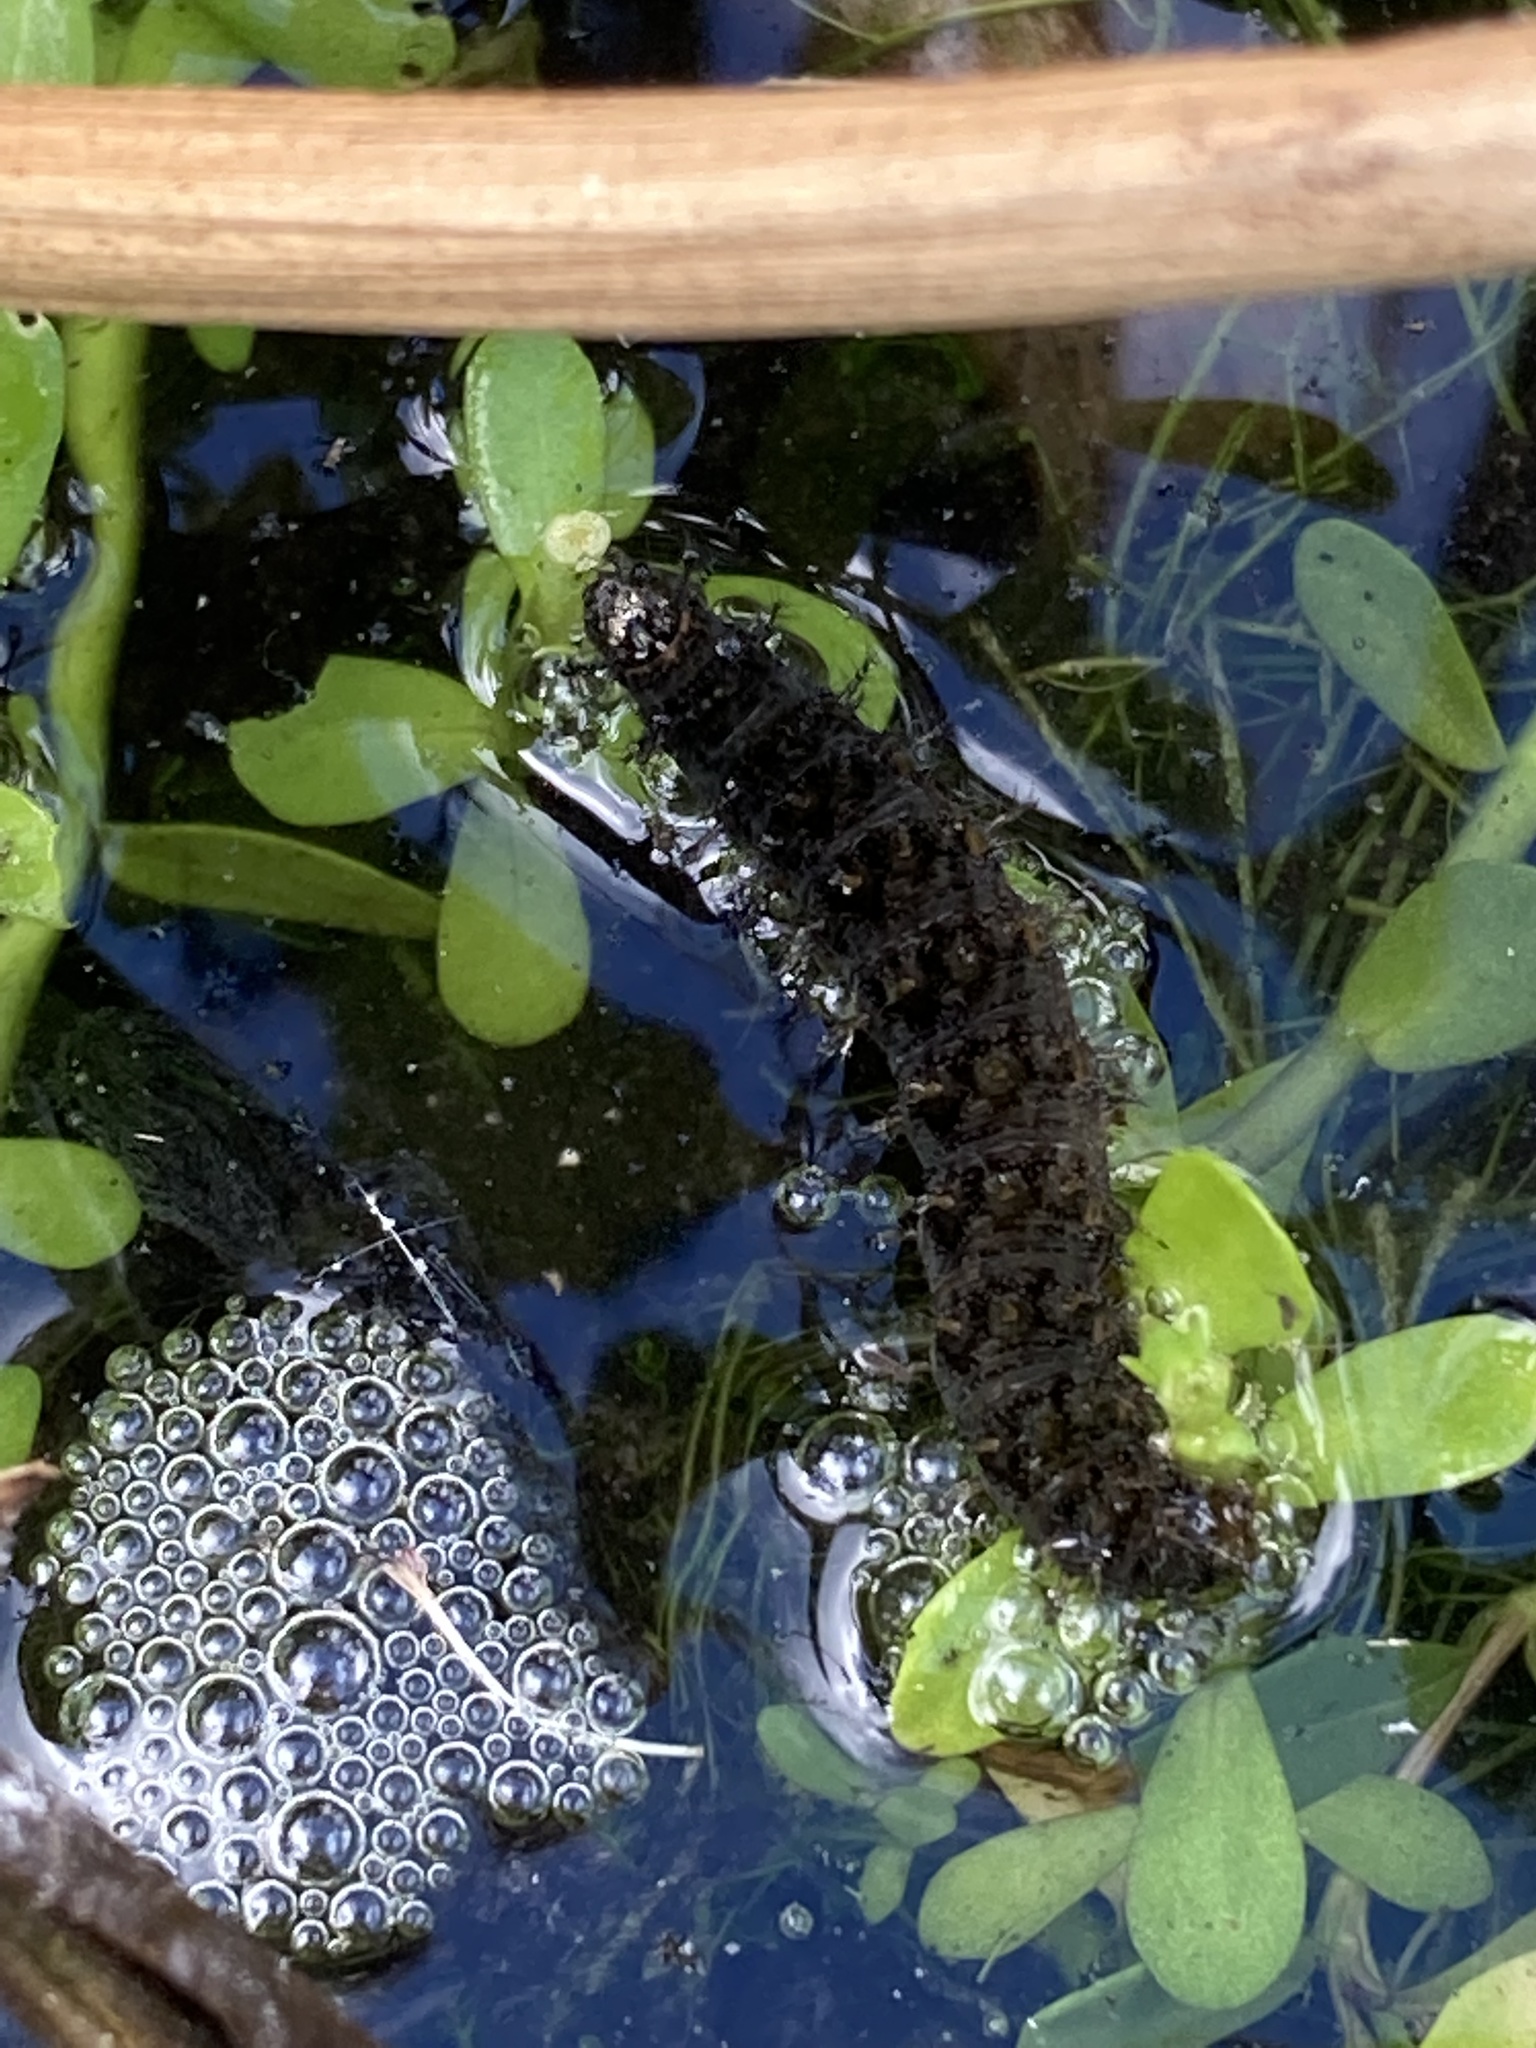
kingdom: Animalia
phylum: Arthropoda
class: Insecta
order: Lepidoptera
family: Nymphalidae
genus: Anartia
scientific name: Anartia jatrophae
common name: White peacock
